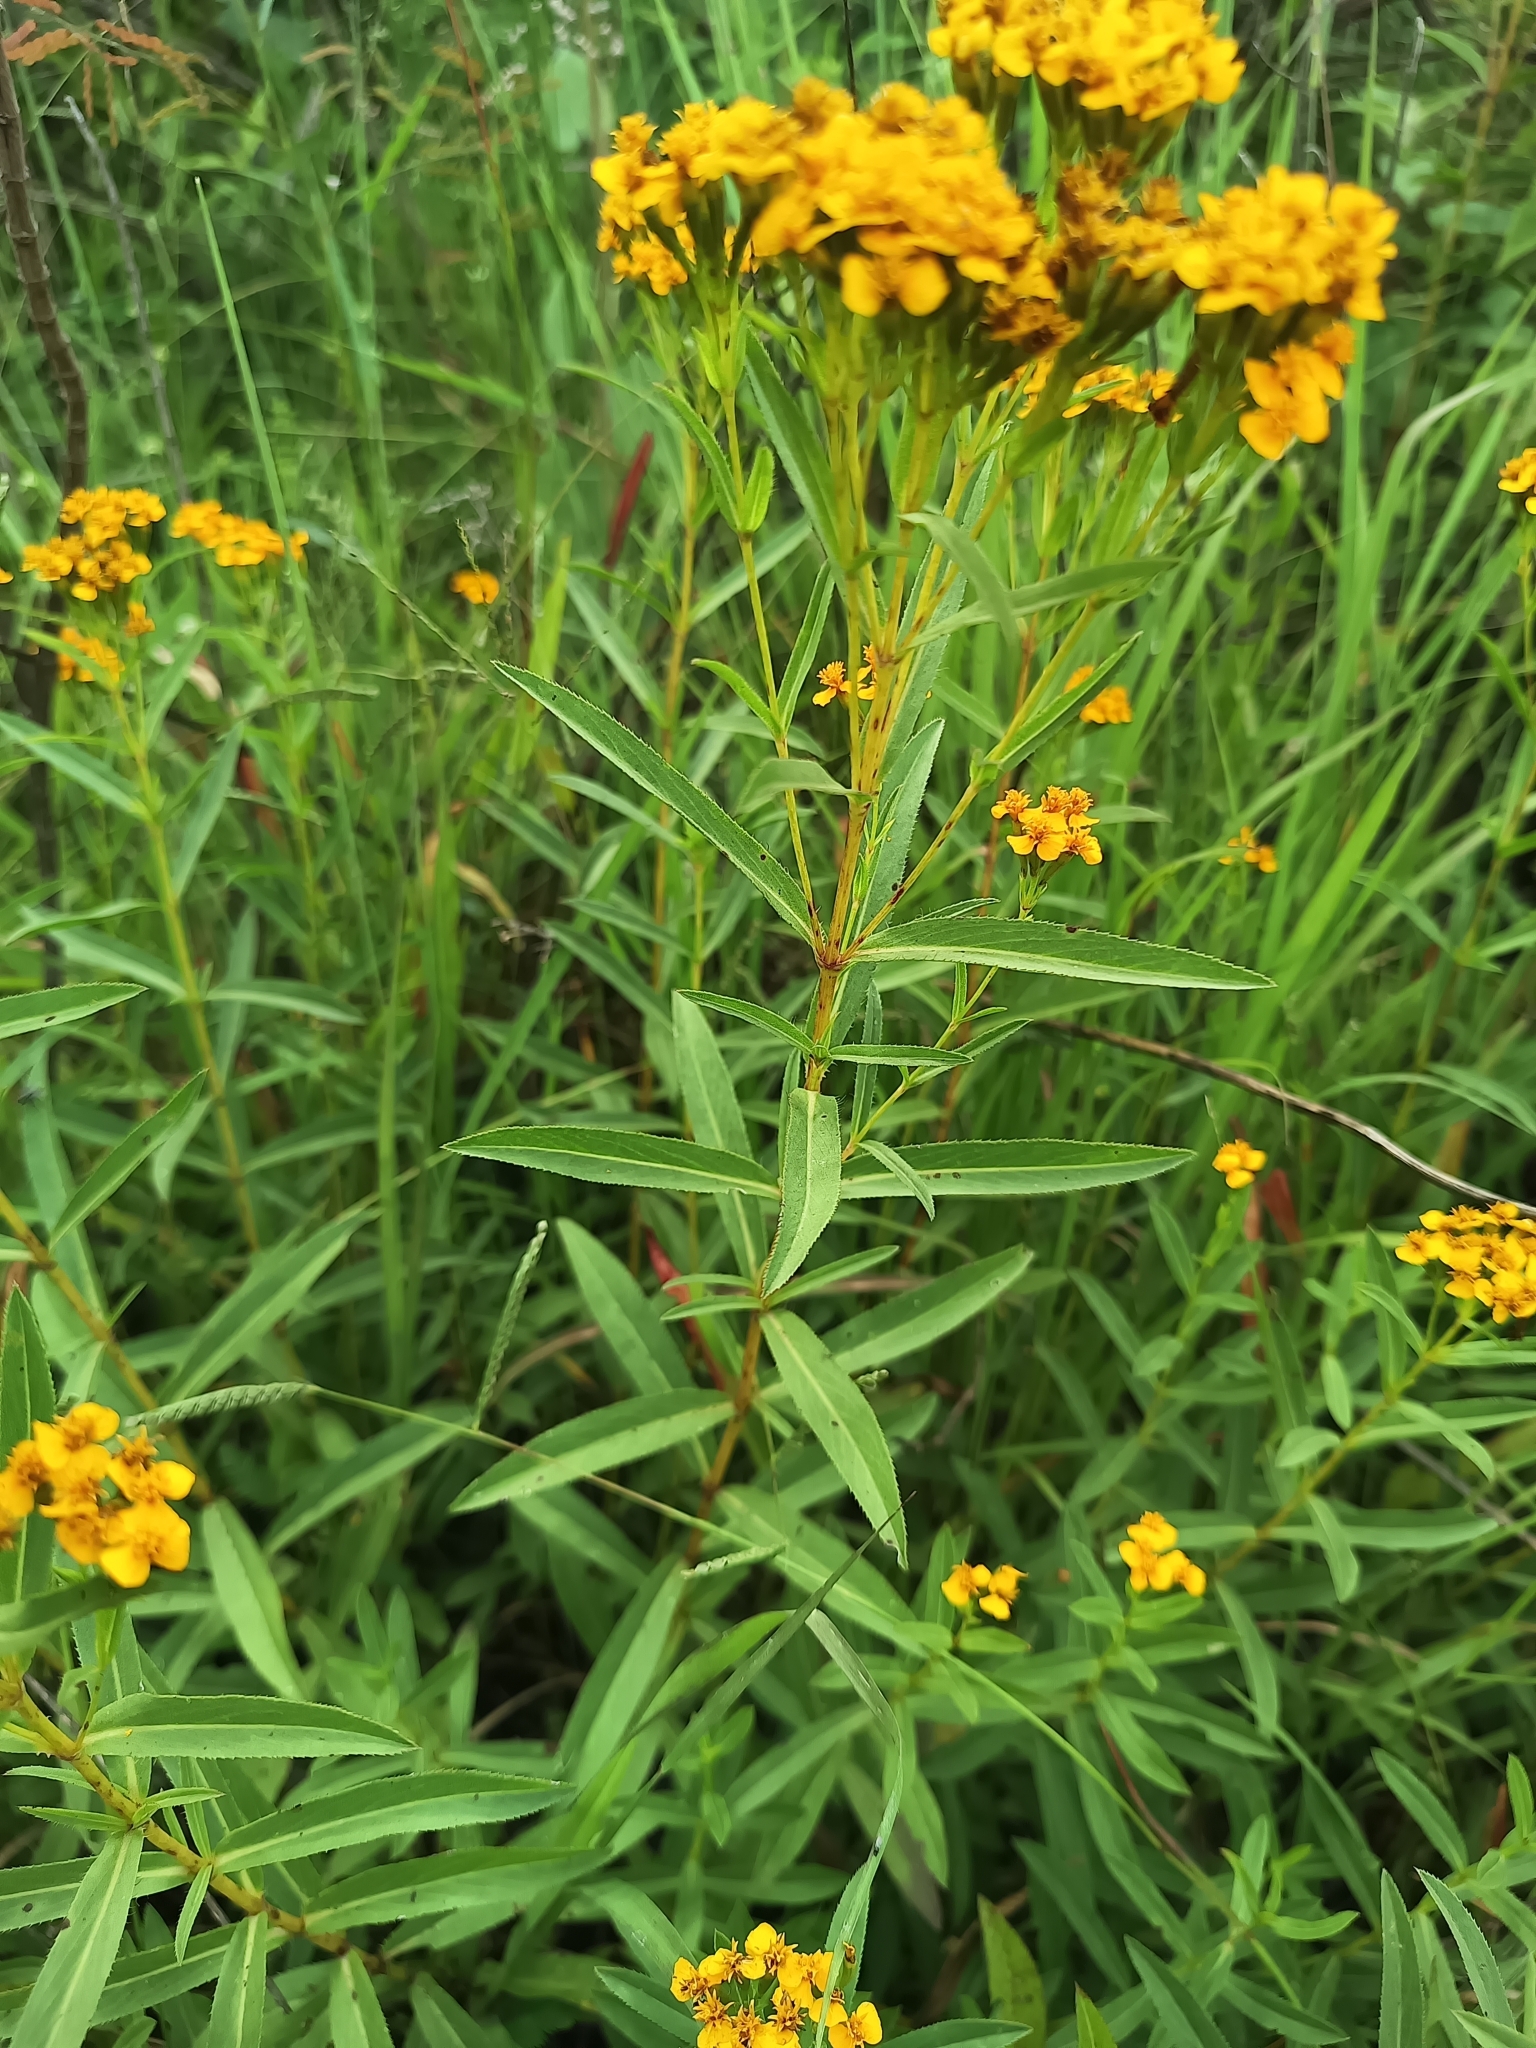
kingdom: Plantae
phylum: Tracheophyta
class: Magnoliopsida
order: Asterales
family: Asteraceae
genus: Tagetes
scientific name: Tagetes lucida
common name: Sweetscented marigold
